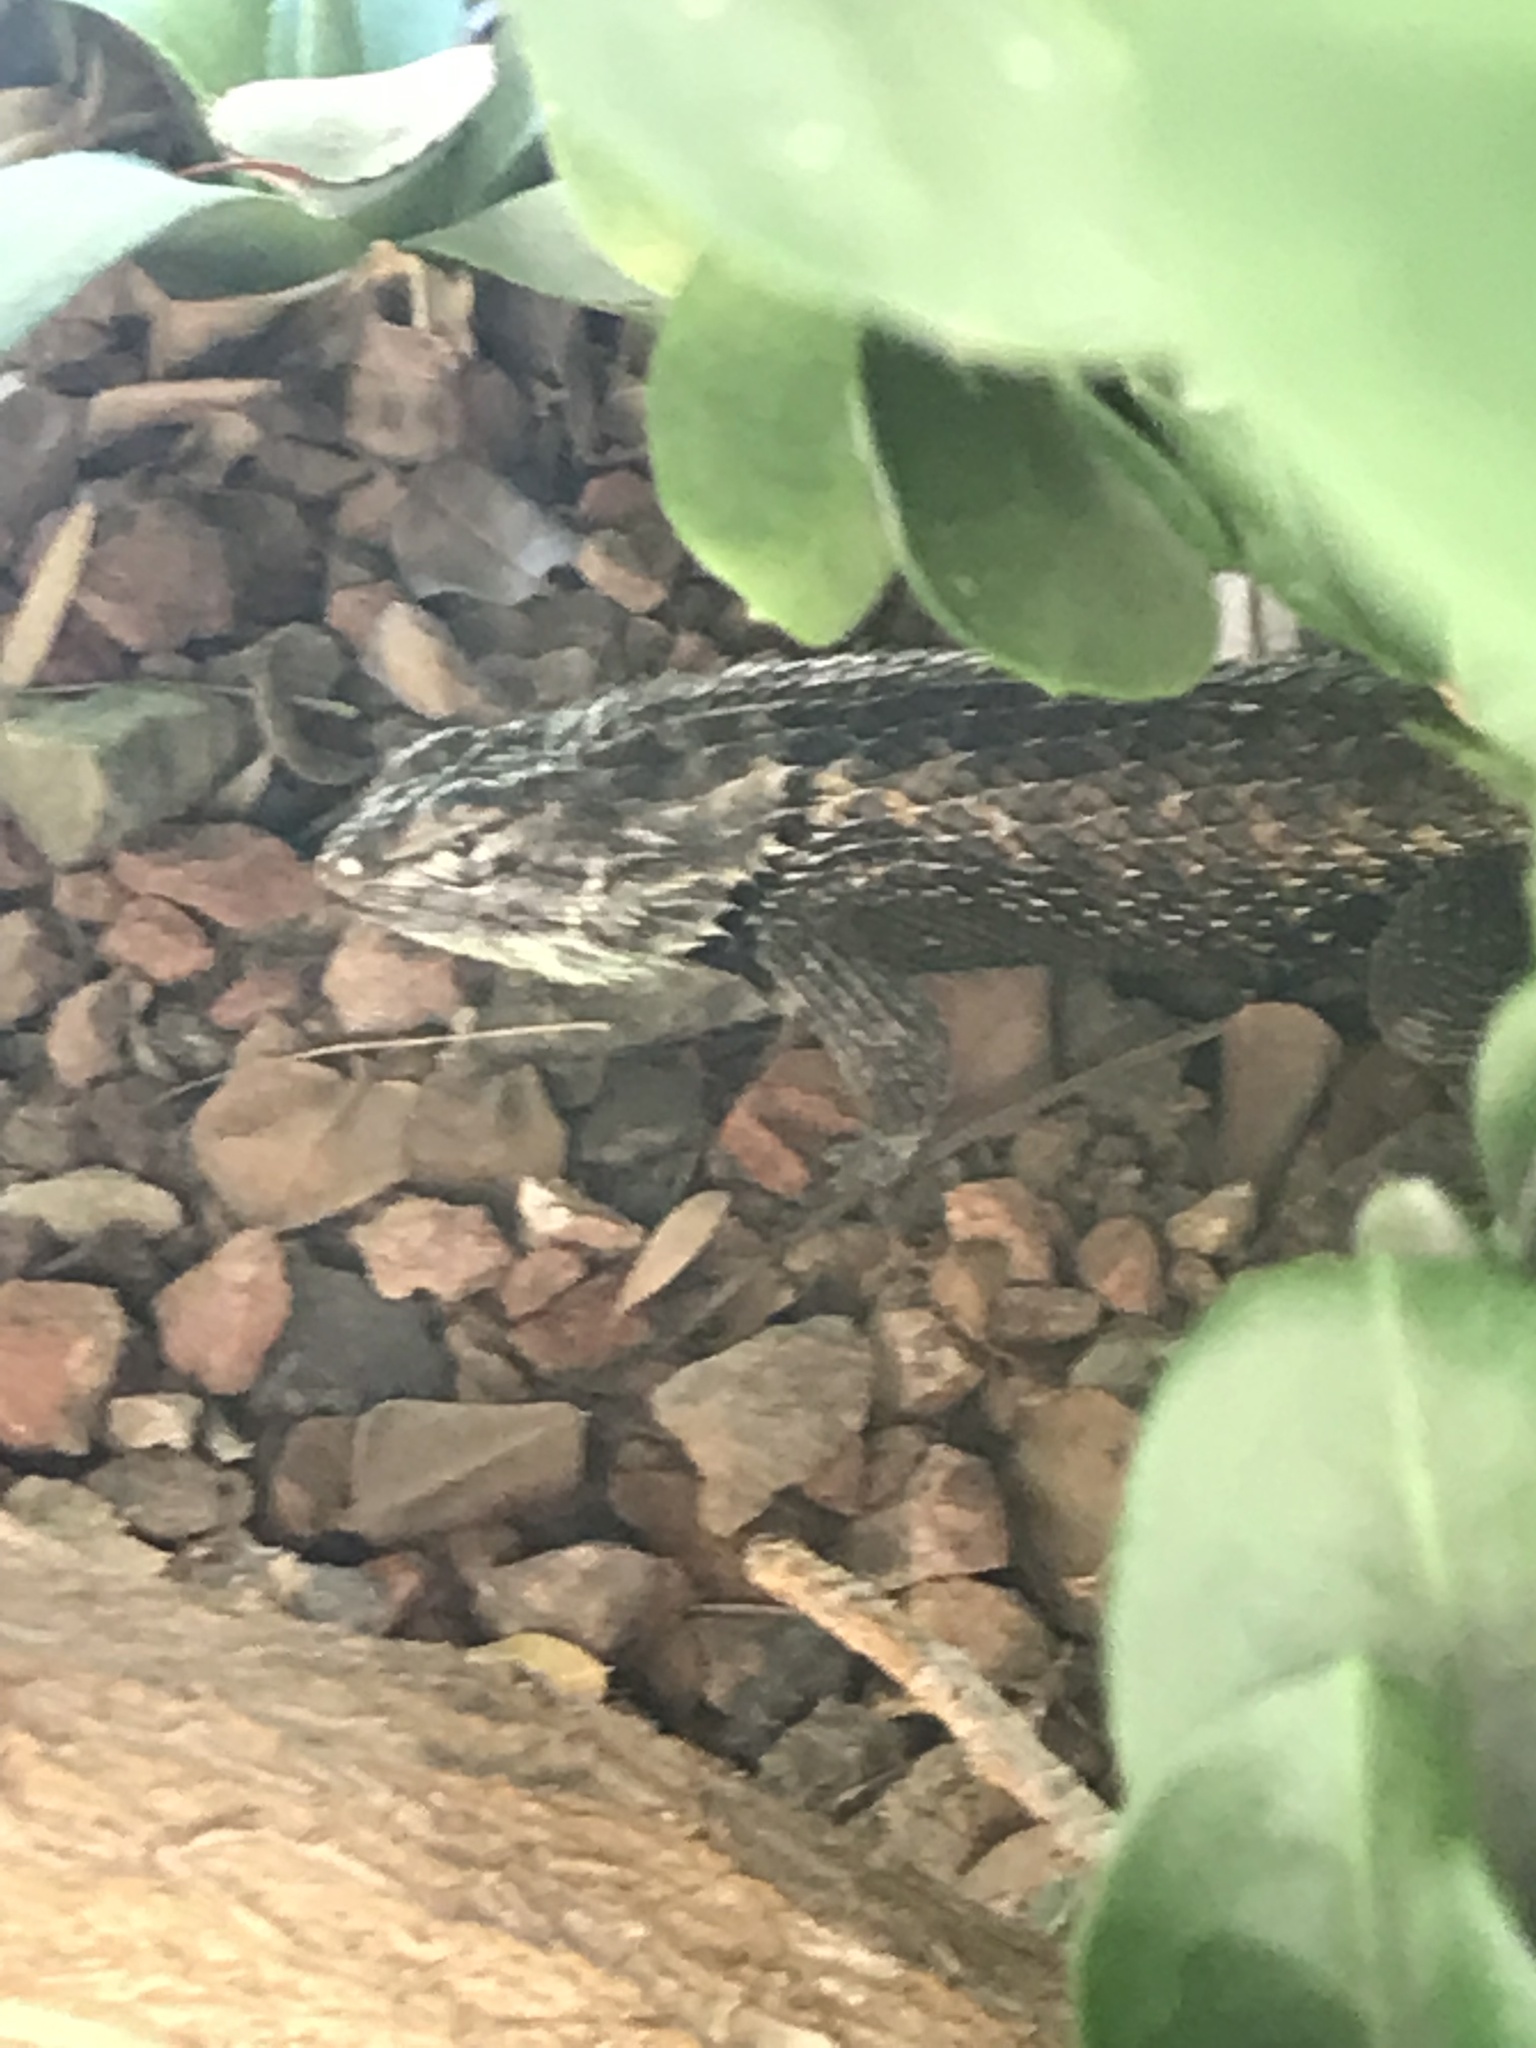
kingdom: Animalia
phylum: Chordata
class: Squamata
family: Phrynosomatidae
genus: Sceloporus
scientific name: Sceloporus magister
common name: Desert spiny lizard
